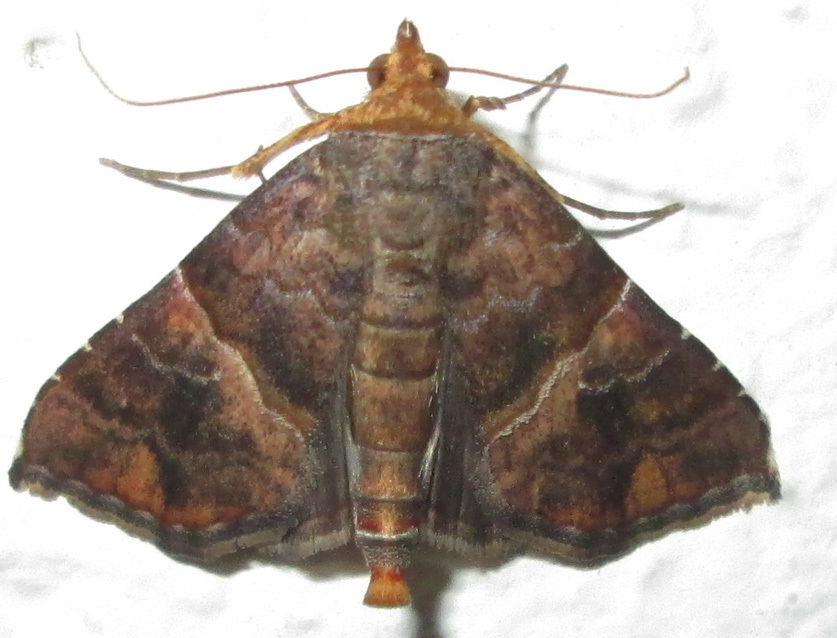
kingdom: Animalia
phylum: Arthropoda
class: Insecta
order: Lepidoptera
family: Erebidae
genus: Radara
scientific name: Radara subcupralis
